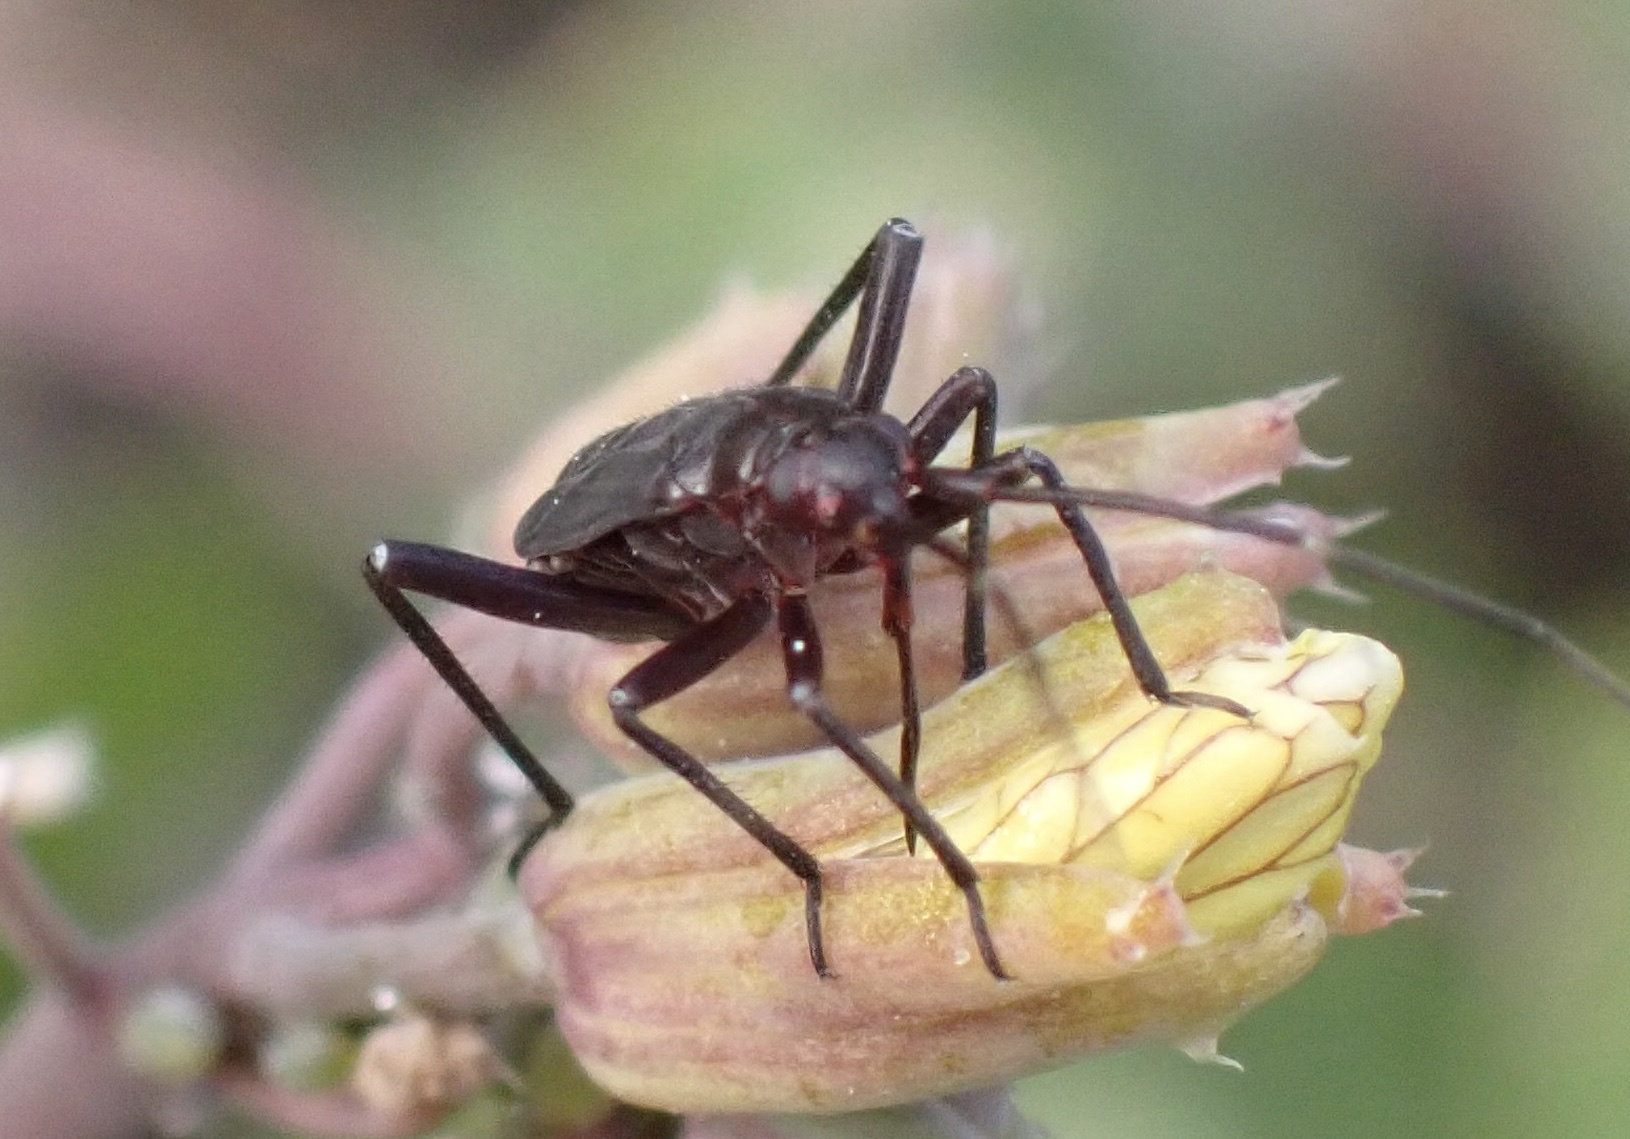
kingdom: Animalia
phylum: Arthropoda
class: Insecta
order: Hemiptera
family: Miridae
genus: Calocoris
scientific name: Calocoris nemoralis
